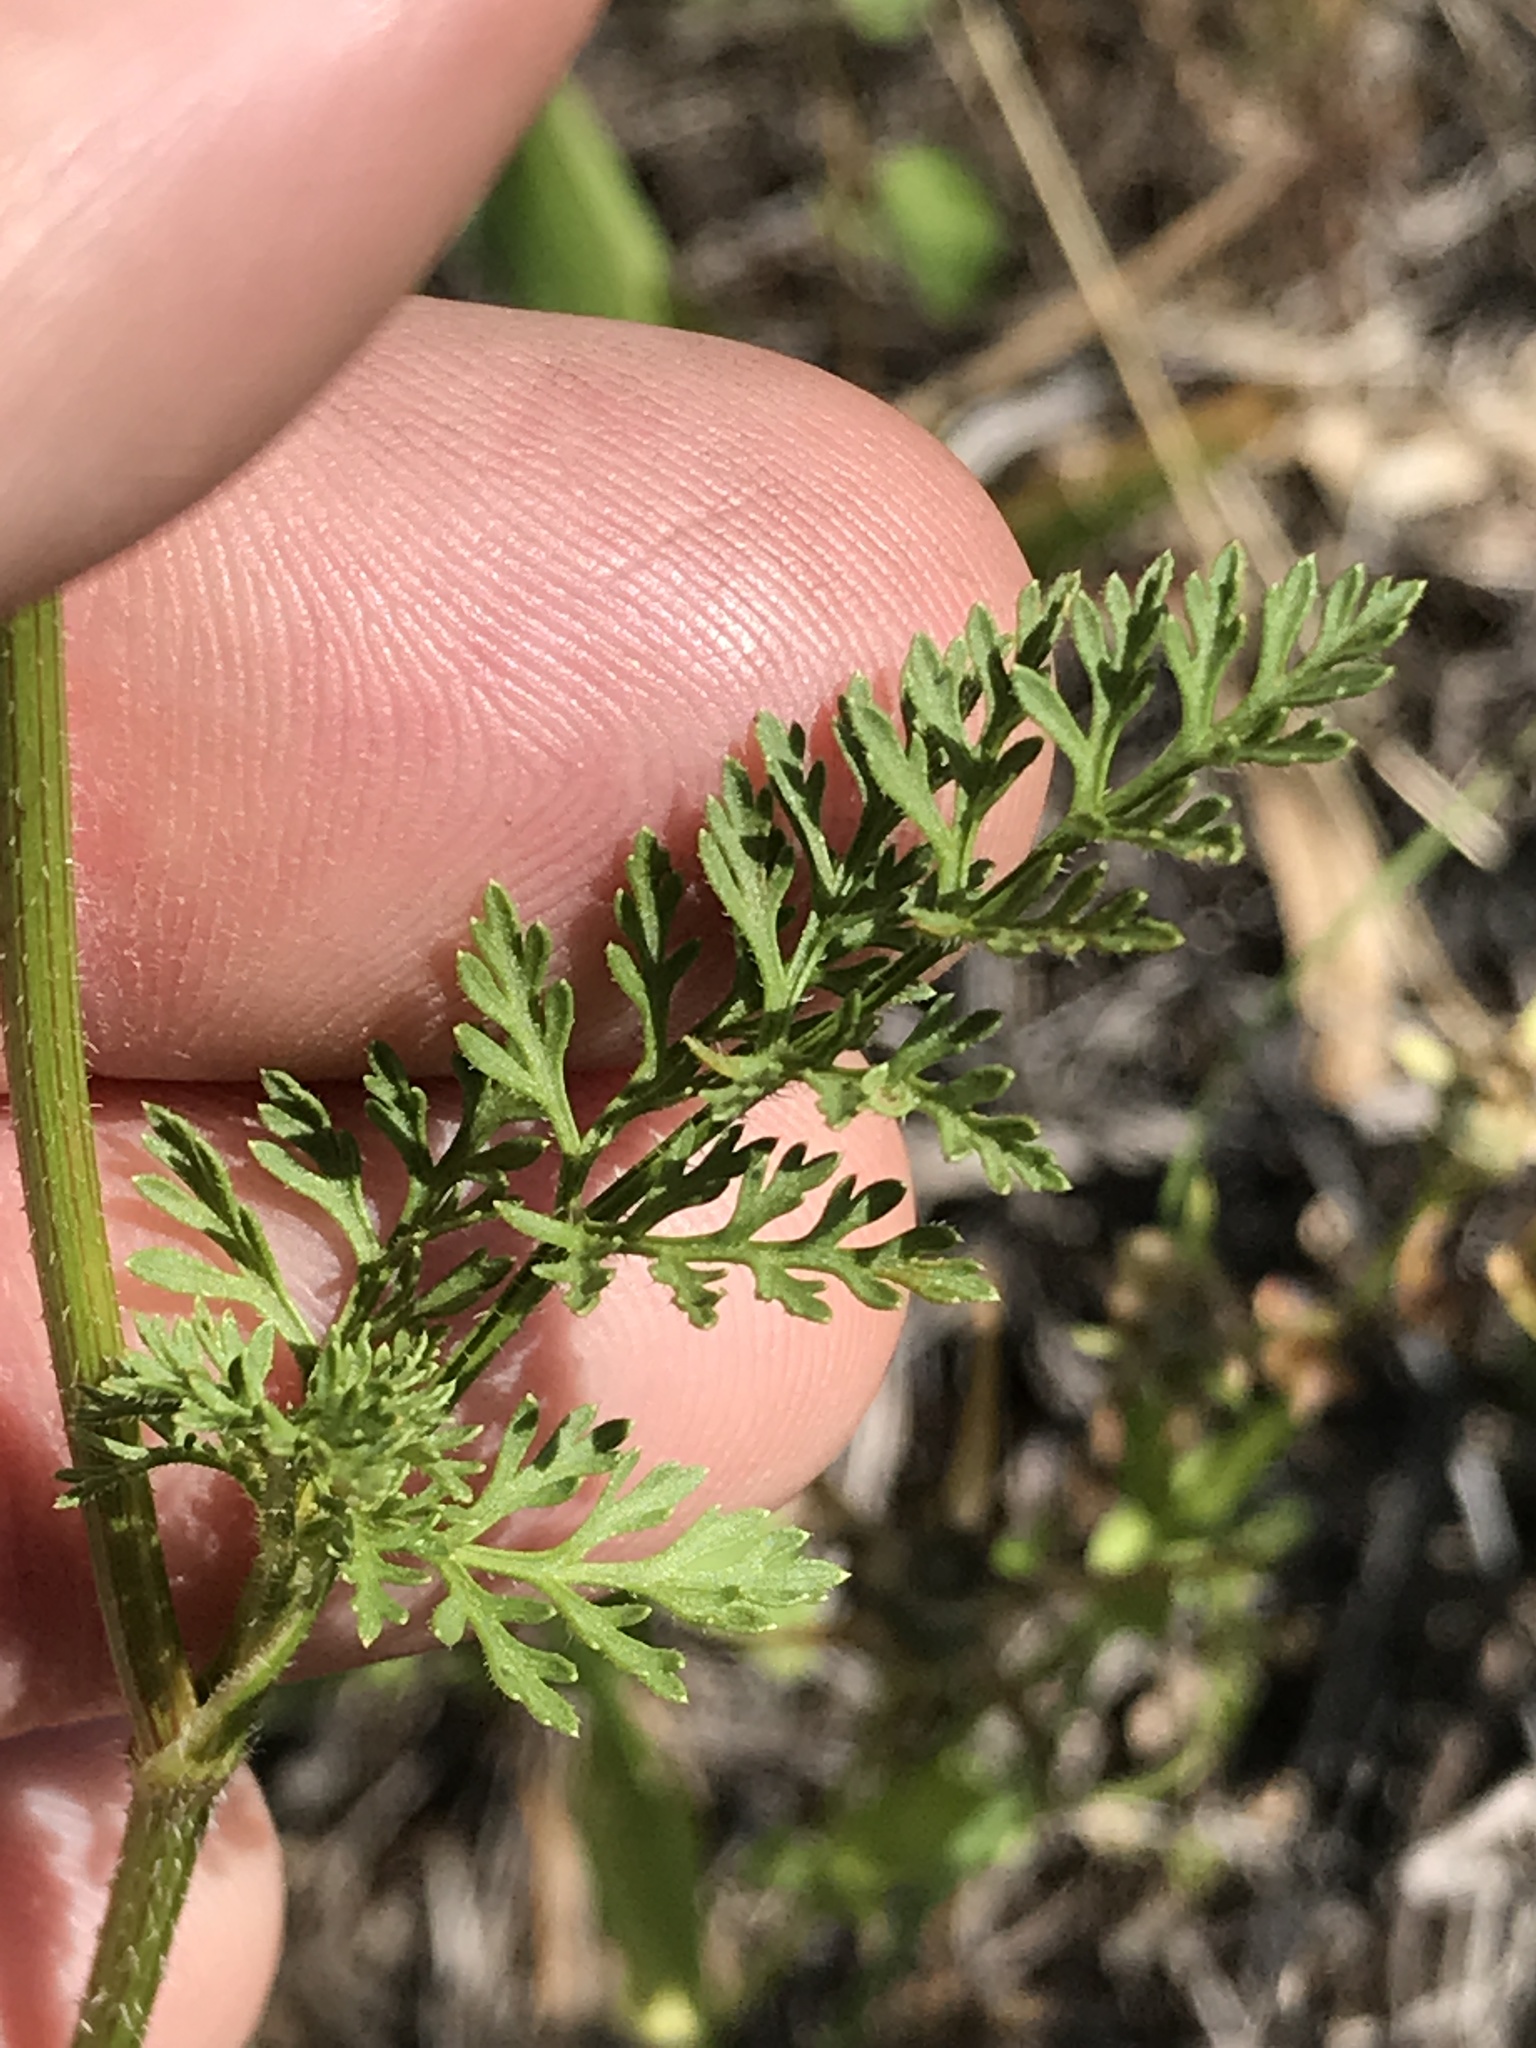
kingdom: Plantae
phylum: Tracheophyta
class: Magnoliopsida
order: Apiales
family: Apiaceae
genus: Daucus
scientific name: Daucus pusillus
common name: Southwest wild carrot
